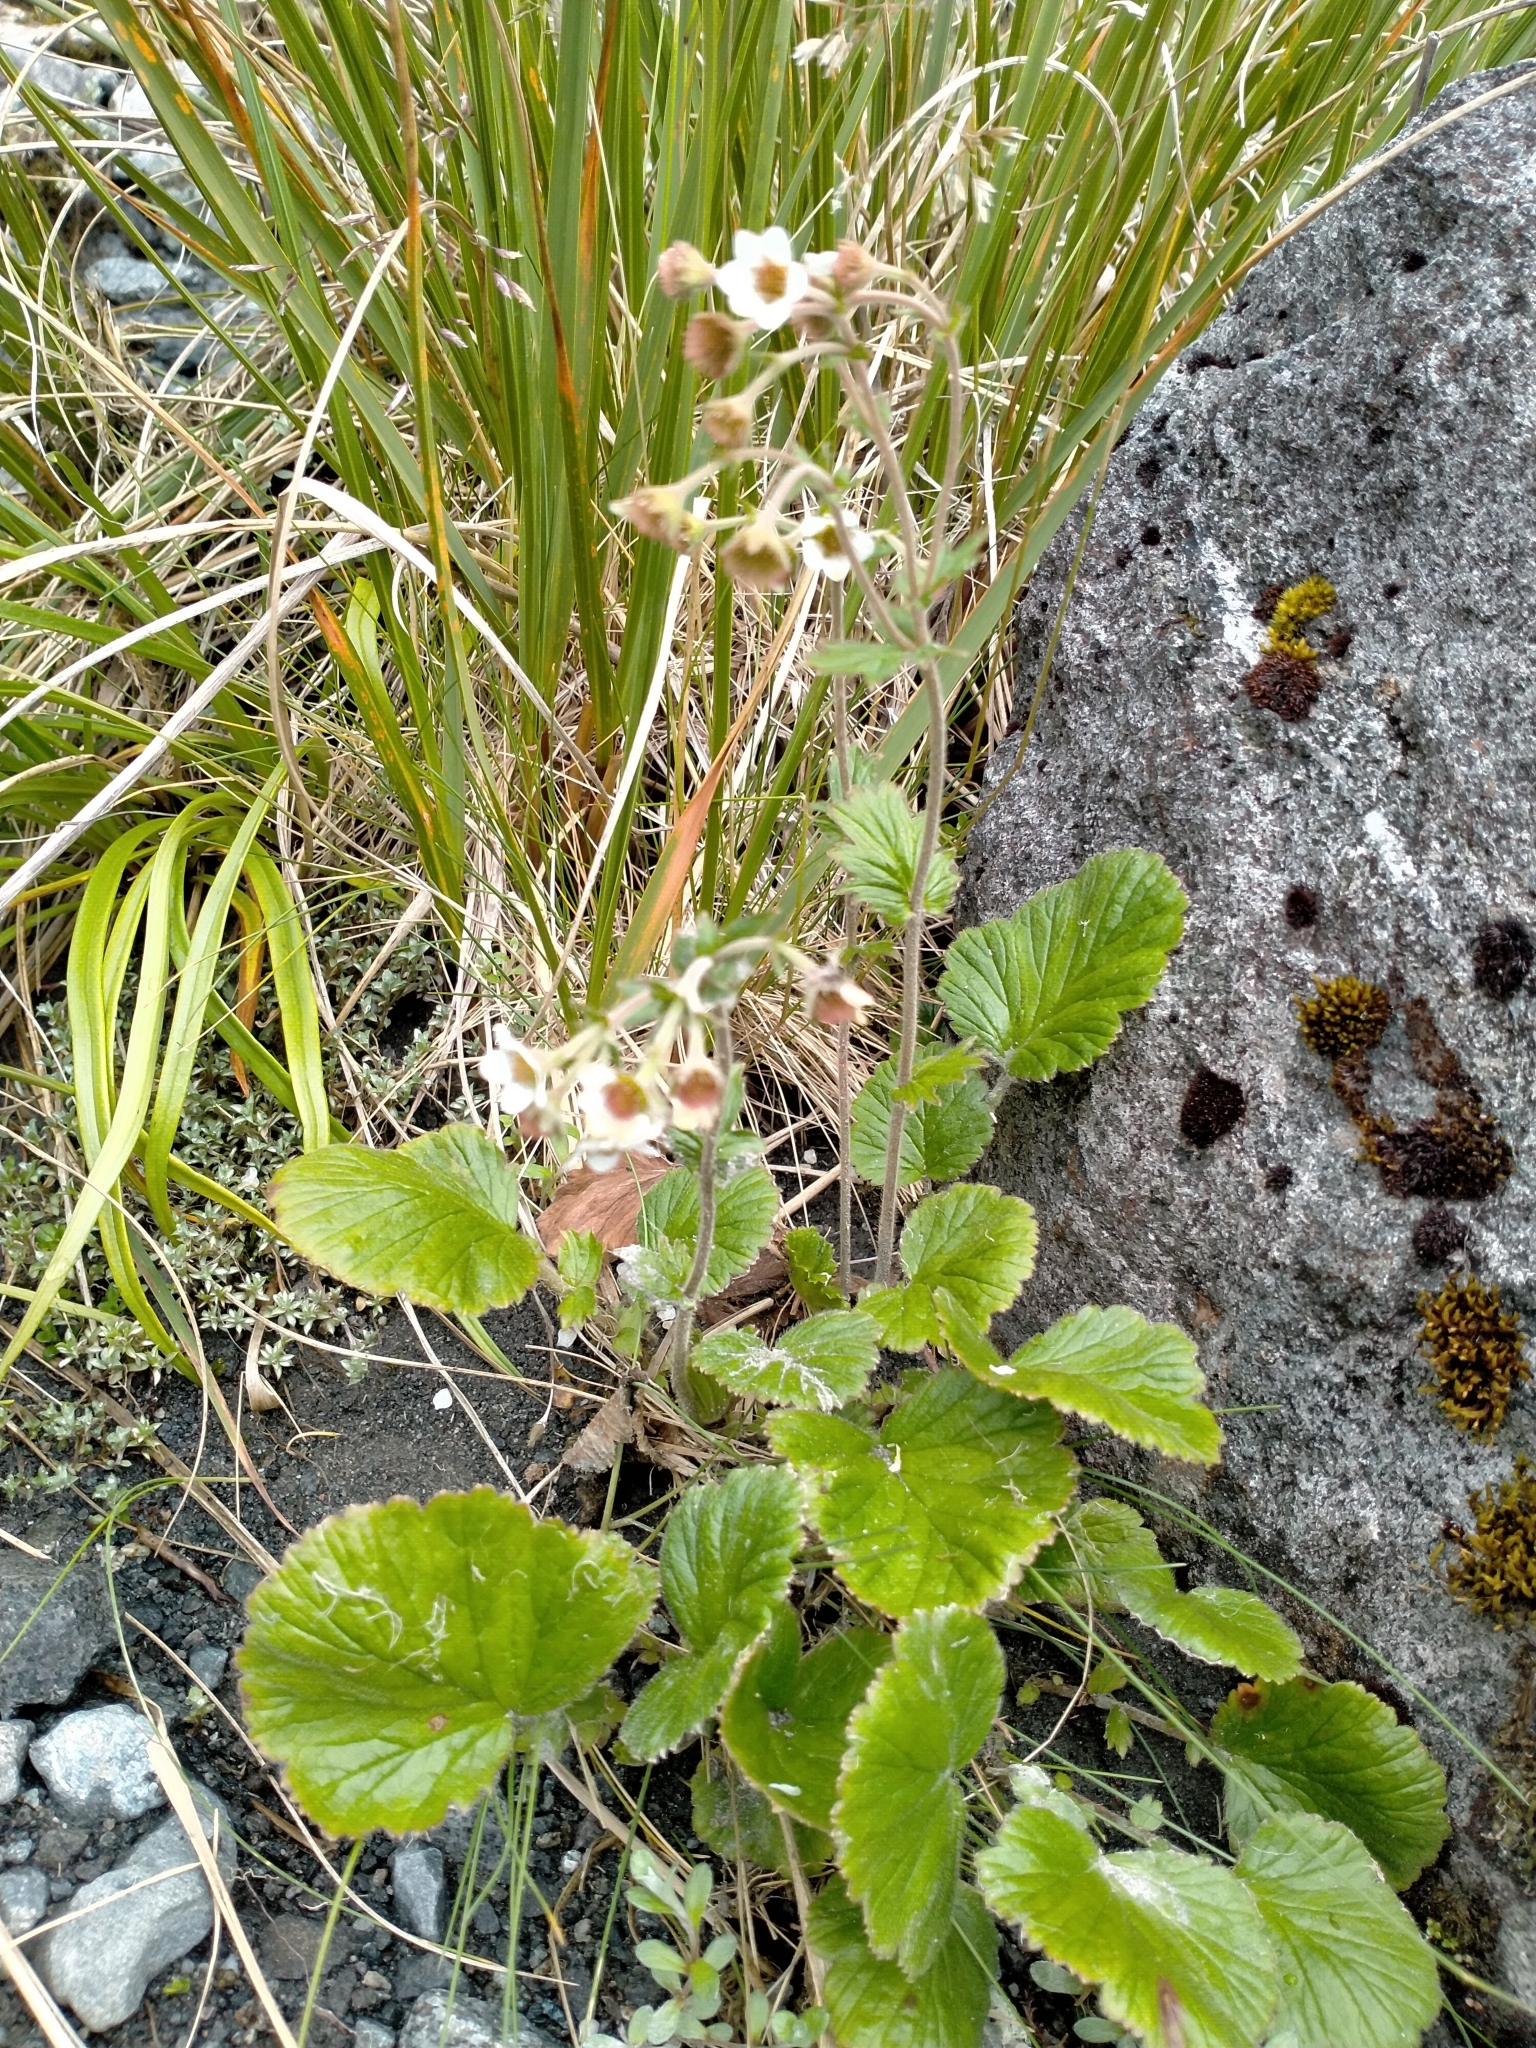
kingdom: Plantae
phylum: Tracheophyta
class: Magnoliopsida
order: Rosales
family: Rosaceae
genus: Geum
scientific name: Geum cockaynei
